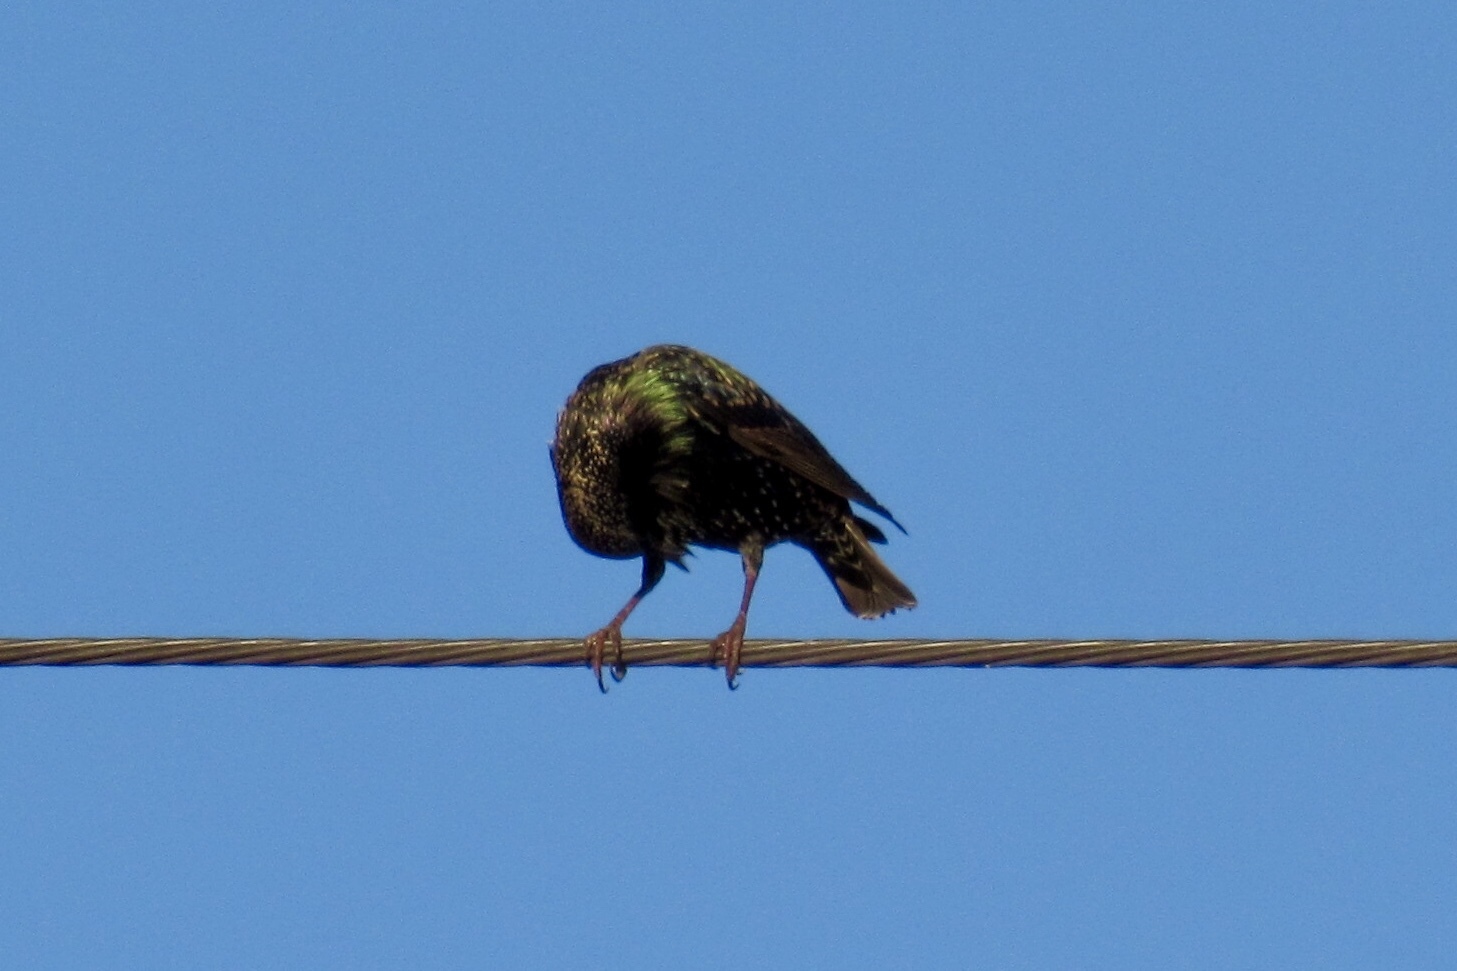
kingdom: Animalia
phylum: Chordata
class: Aves
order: Passeriformes
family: Sturnidae
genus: Sturnus
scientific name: Sturnus vulgaris
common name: Common starling
